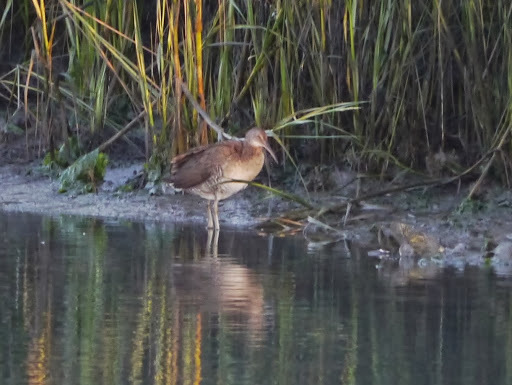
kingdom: Animalia
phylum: Chordata
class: Aves
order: Gruiformes
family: Rallidae
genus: Rallus
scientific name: Rallus crepitans
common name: Clapper rail
